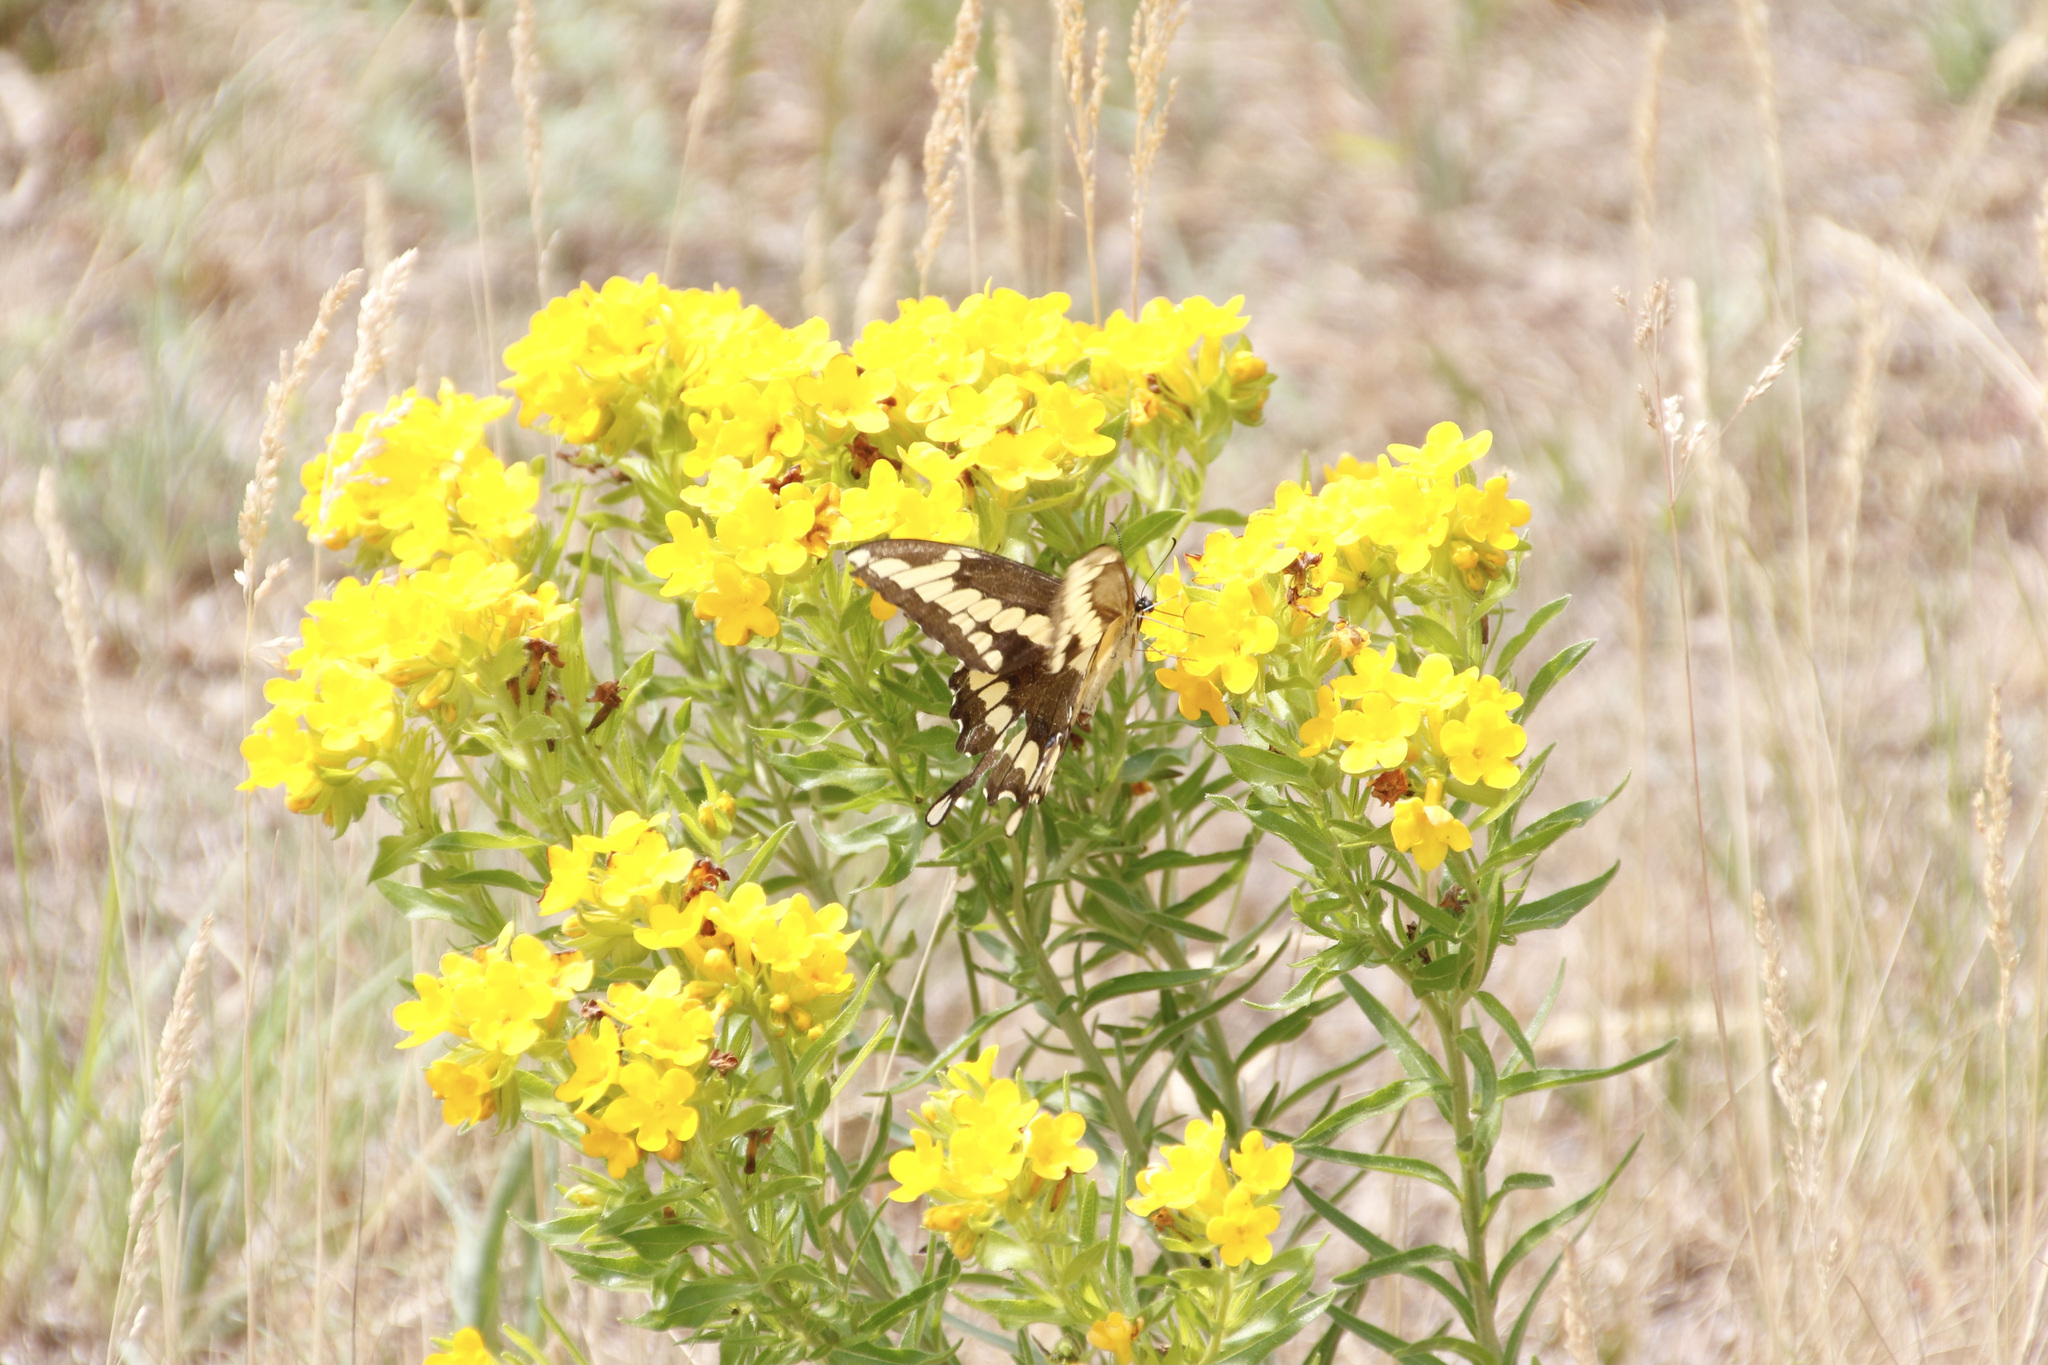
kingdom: Animalia
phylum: Arthropoda
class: Insecta
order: Lepidoptera
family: Papilionidae
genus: Papilio
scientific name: Papilio cresphontes
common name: Giant swallowtail
